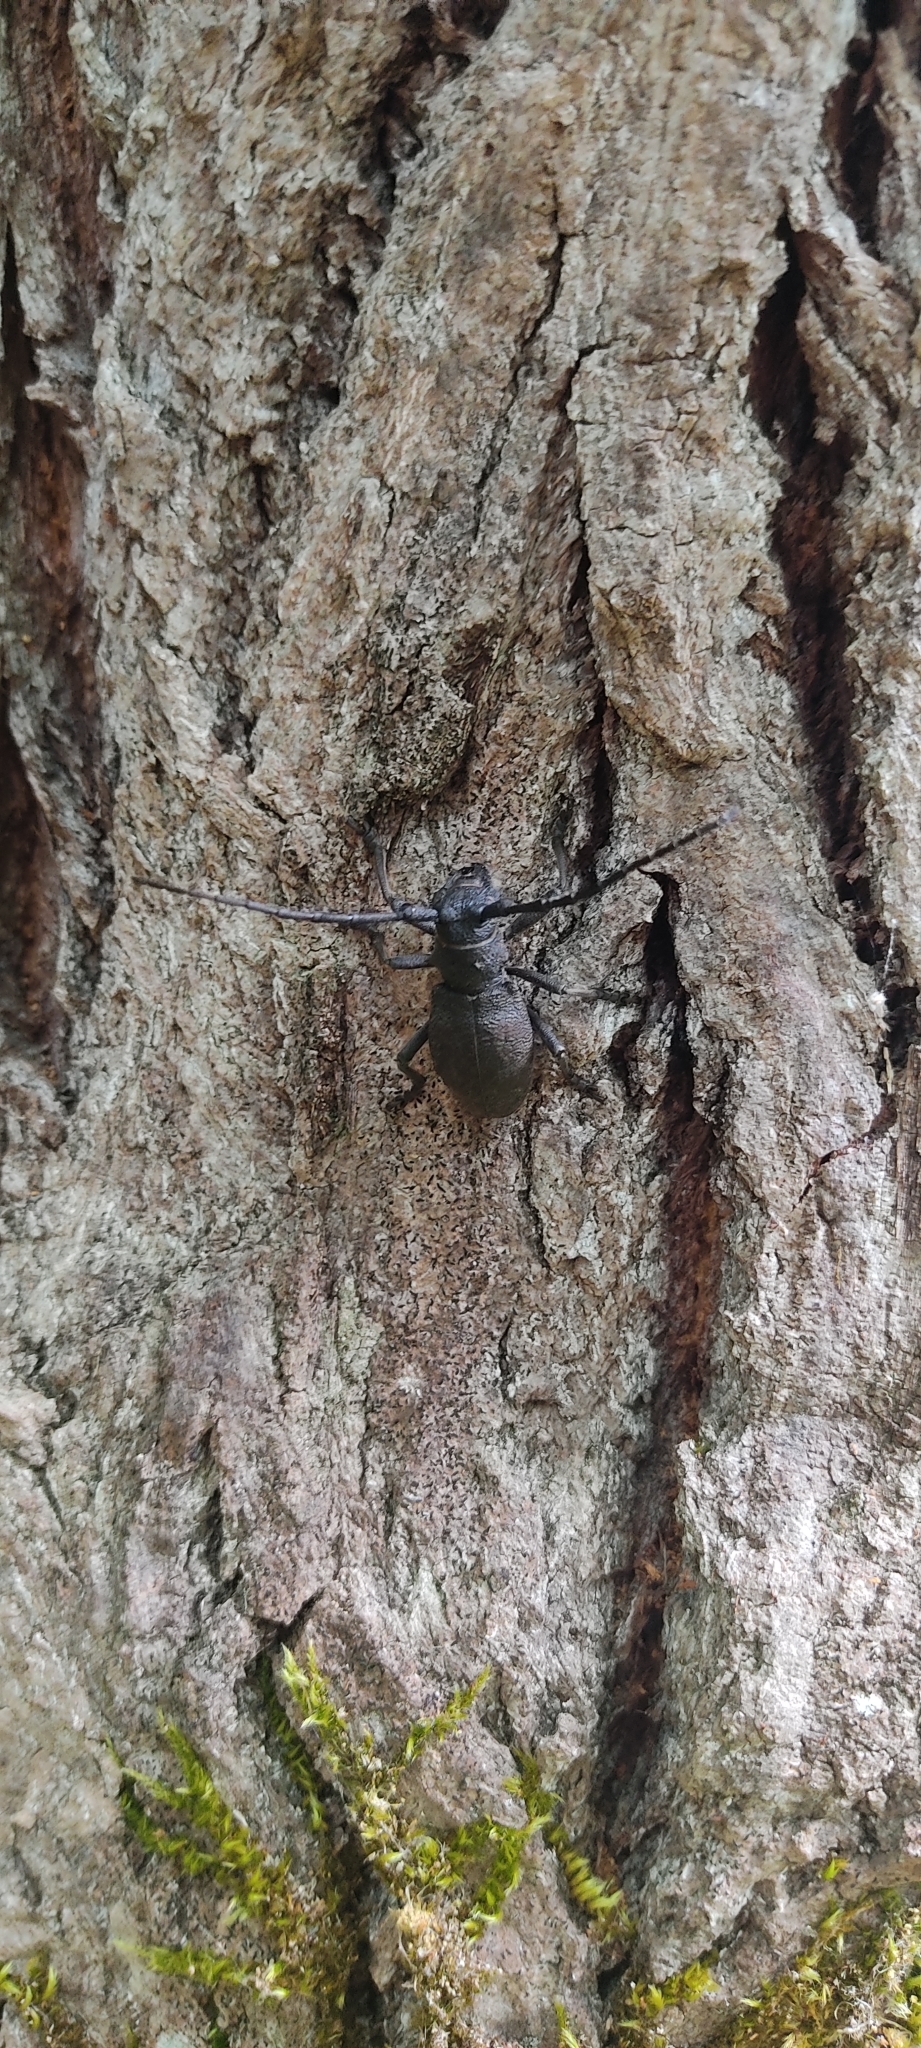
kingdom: Animalia
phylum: Arthropoda
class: Insecta
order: Coleoptera
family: Cerambycidae
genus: Morimus
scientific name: Morimus asper
